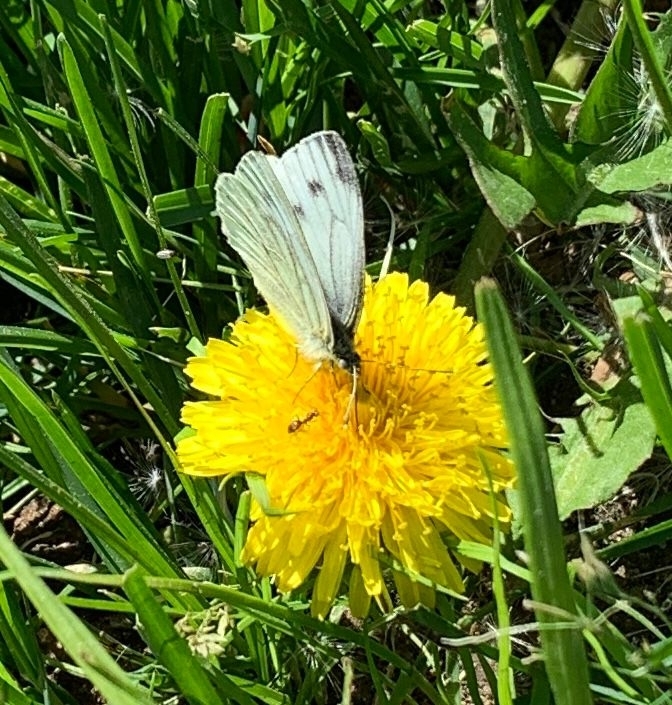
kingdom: Animalia
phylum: Arthropoda
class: Insecta
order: Lepidoptera
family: Pieridae
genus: Pieris
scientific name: Pieris napi
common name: Green-veined white
